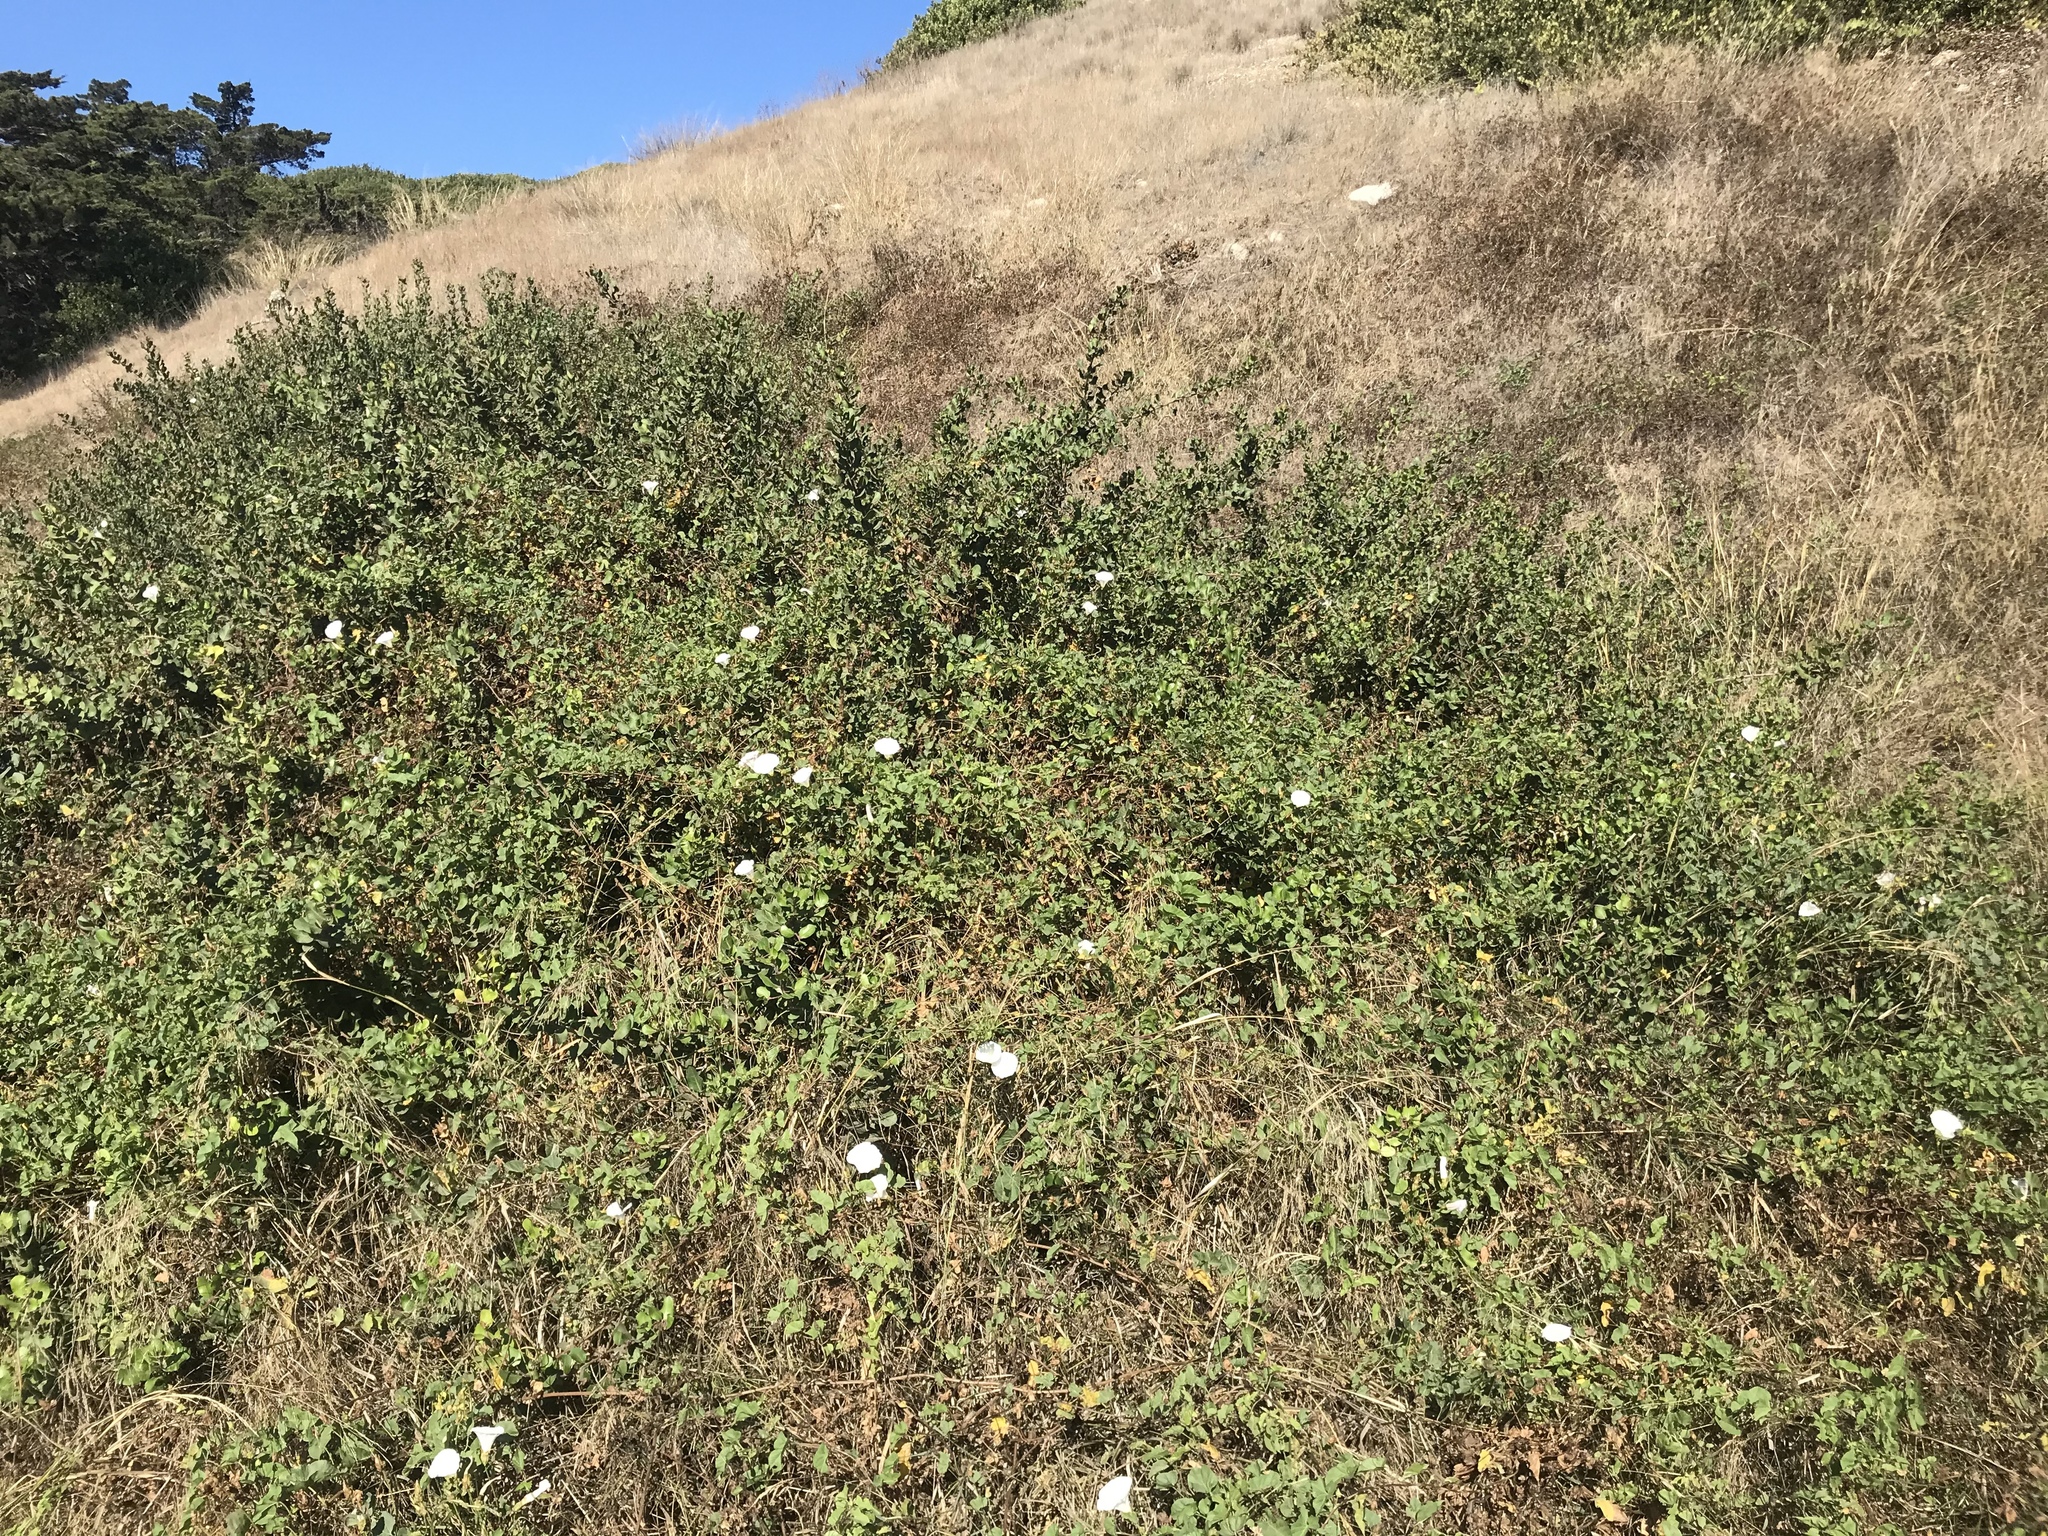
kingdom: Plantae
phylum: Tracheophyta
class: Magnoliopsida
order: Solanales
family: Convolvulaceae
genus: Calystegia
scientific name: Calystegia macrostegia
